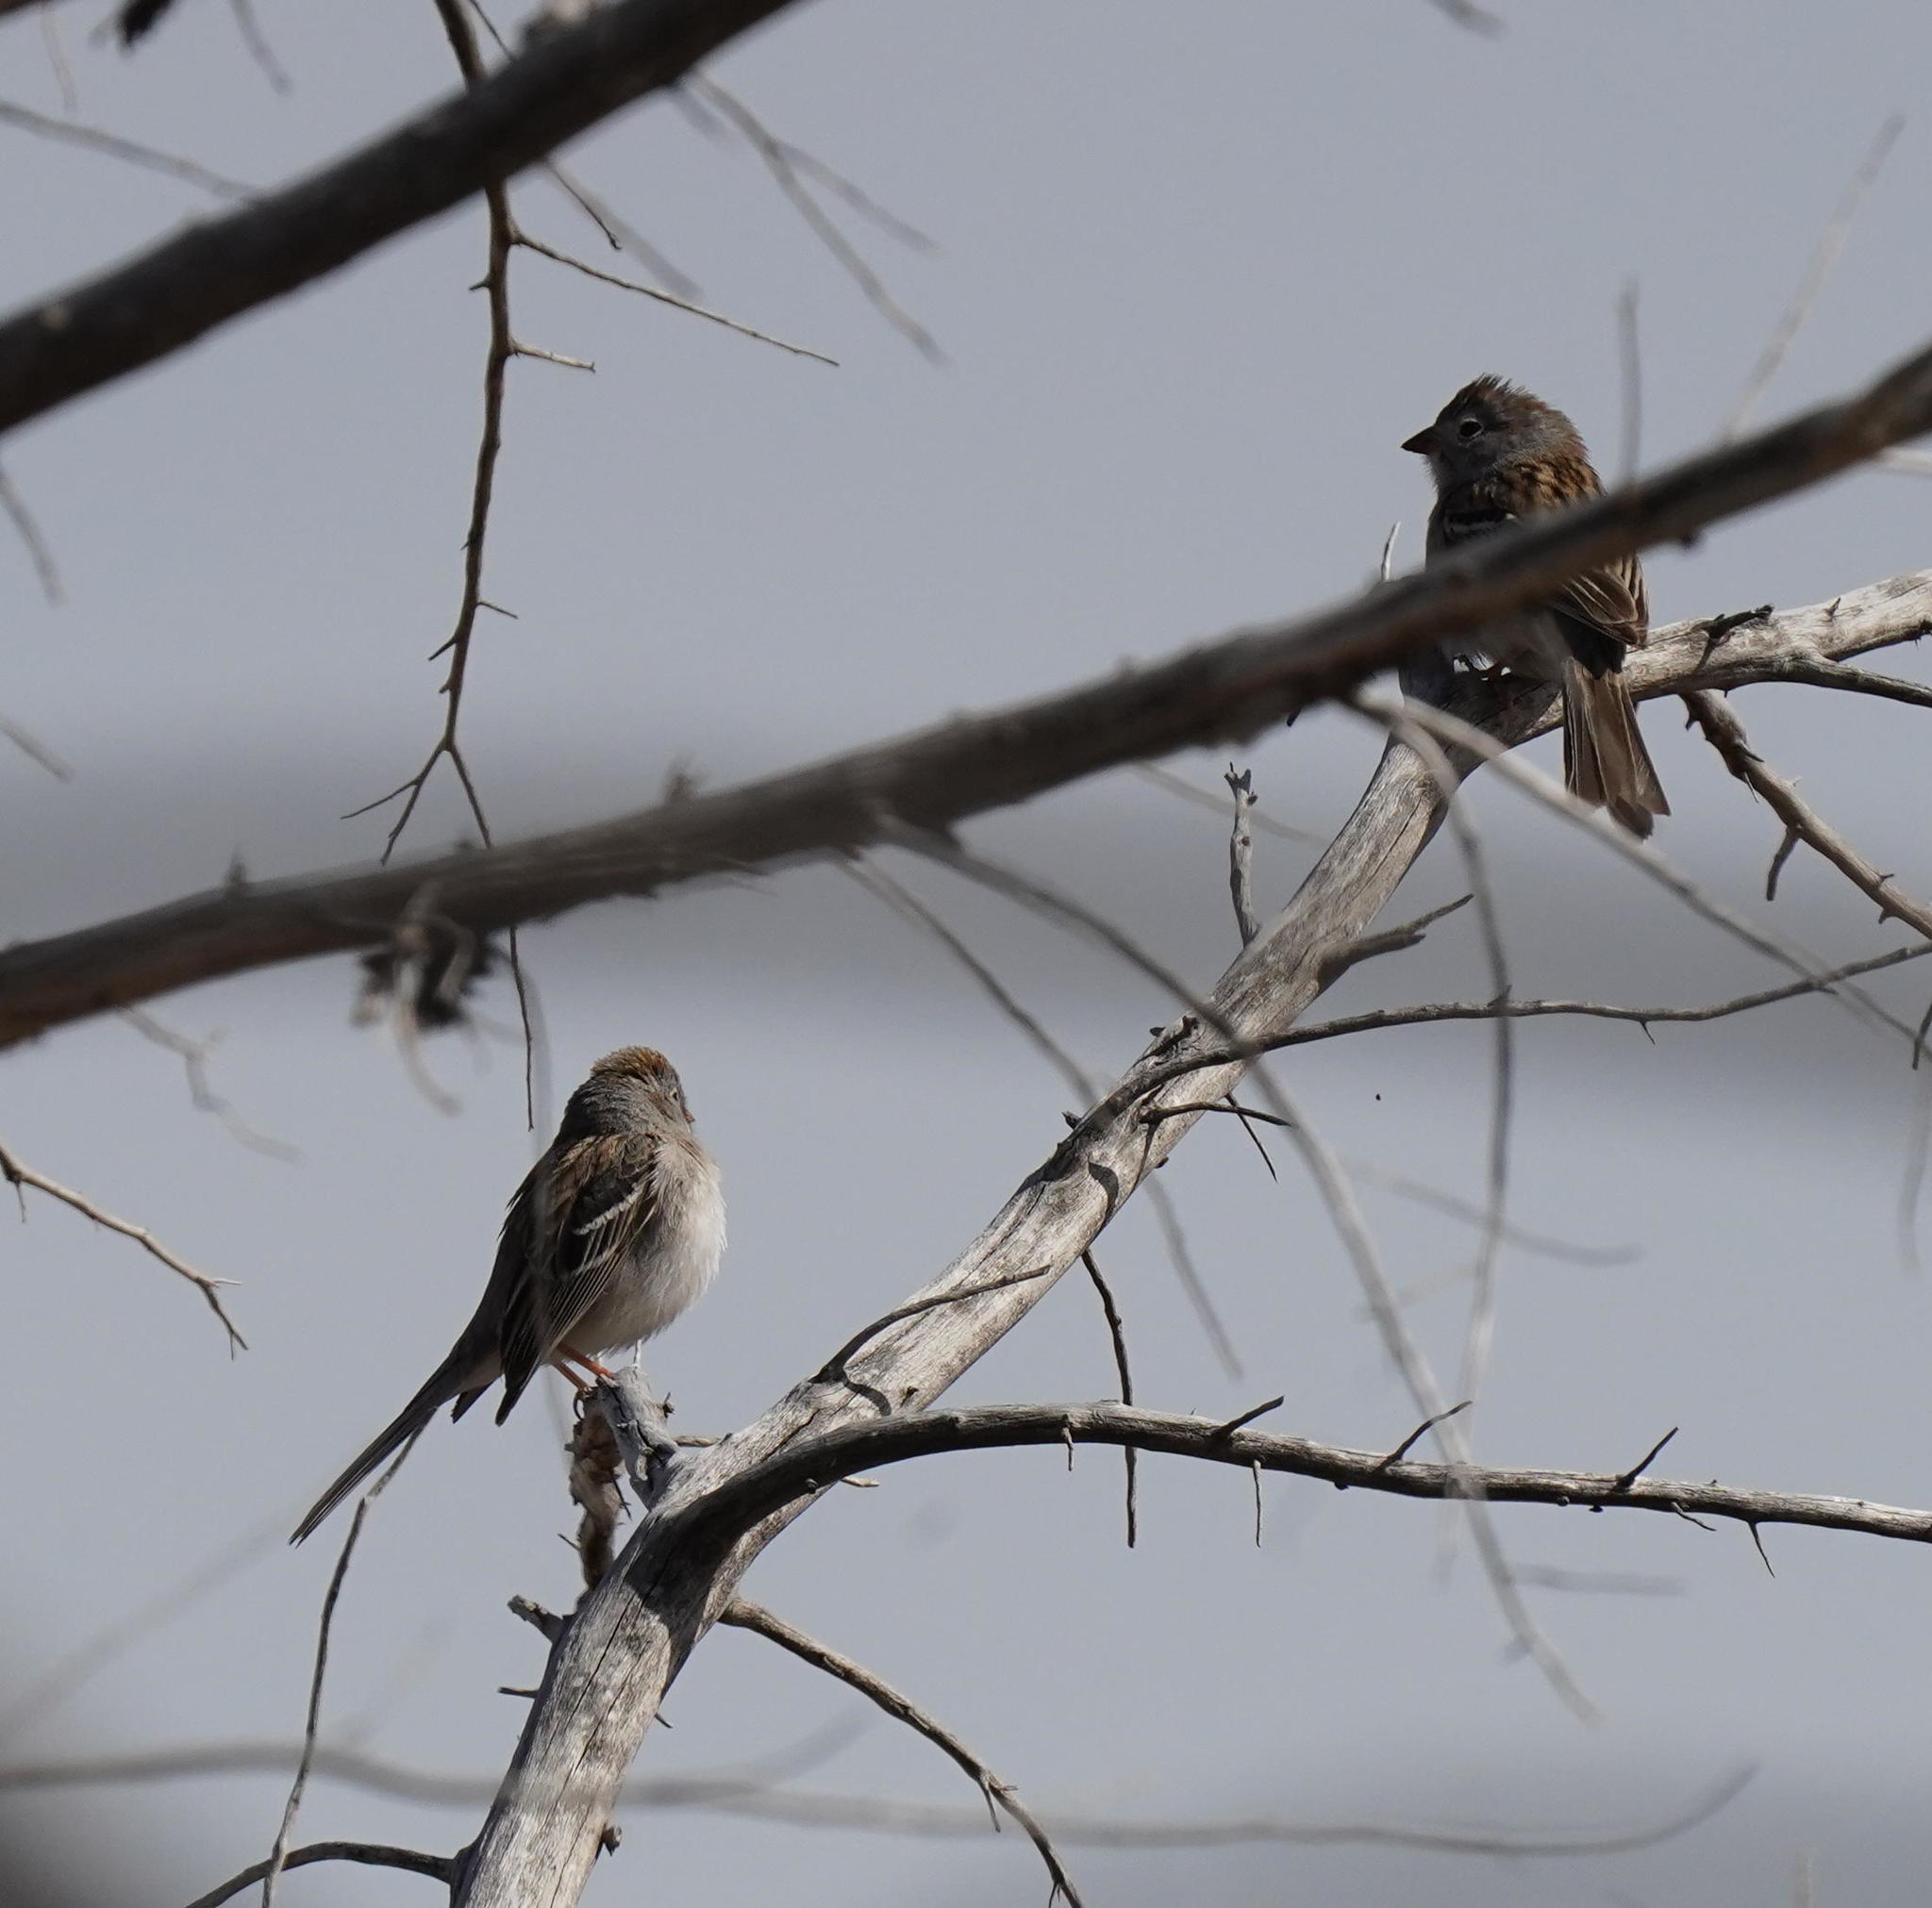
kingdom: Animalia
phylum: Chordata
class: Aves
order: Passeriformes
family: Passerellidae
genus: Spizella
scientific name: Spizella pusilla
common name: Field sparrow
